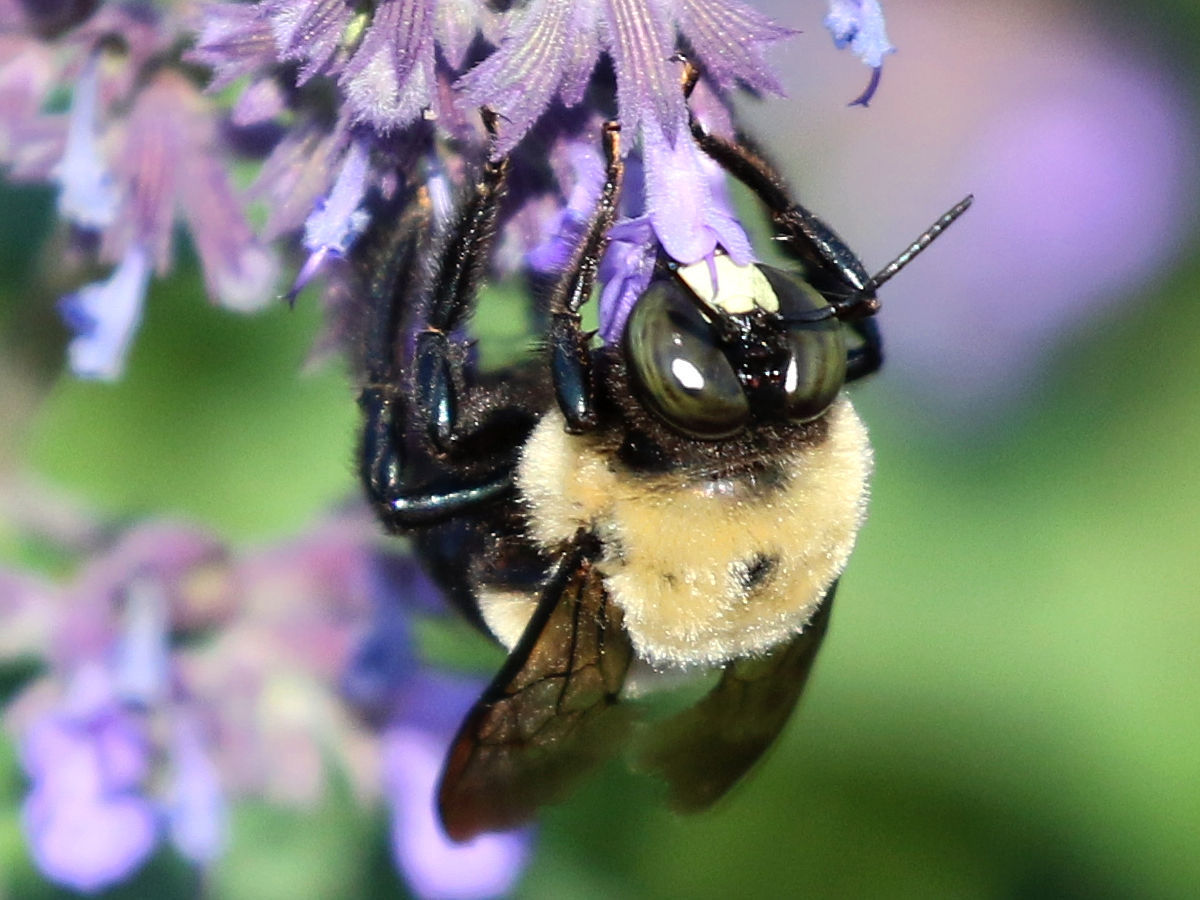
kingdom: Animalia
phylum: Arthropoda
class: Insecta
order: Hymenoptera
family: Apidae
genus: Xylocopa
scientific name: Xylocopa virginica
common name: Carpenter bee
